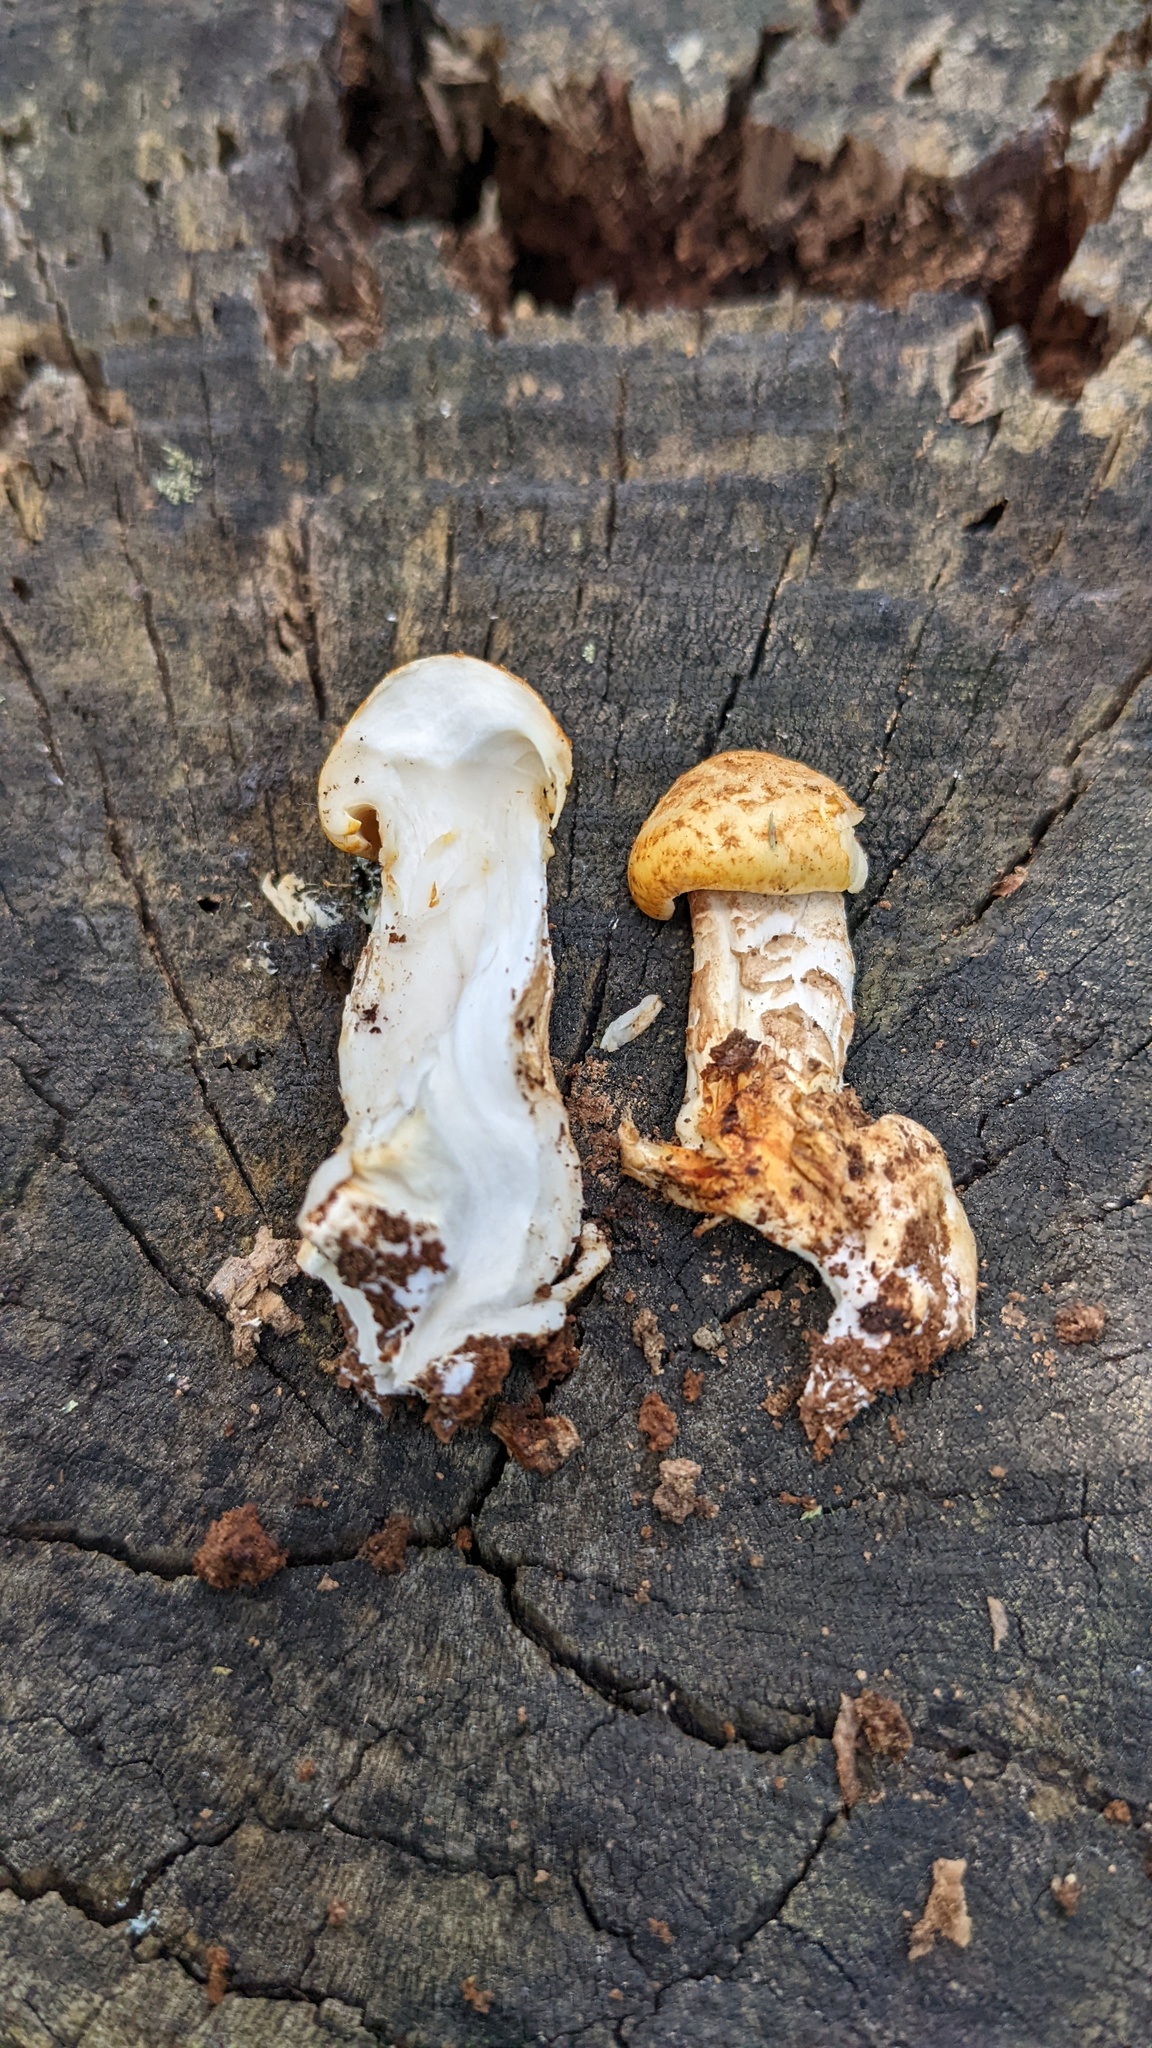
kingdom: Fungi
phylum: Basidiomycota
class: Agaricomycetes
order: Gloeophyllales
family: Gloeophyllaceae
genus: Neolentinus
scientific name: Neolentinus lepideus
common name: Scaly sawgill
